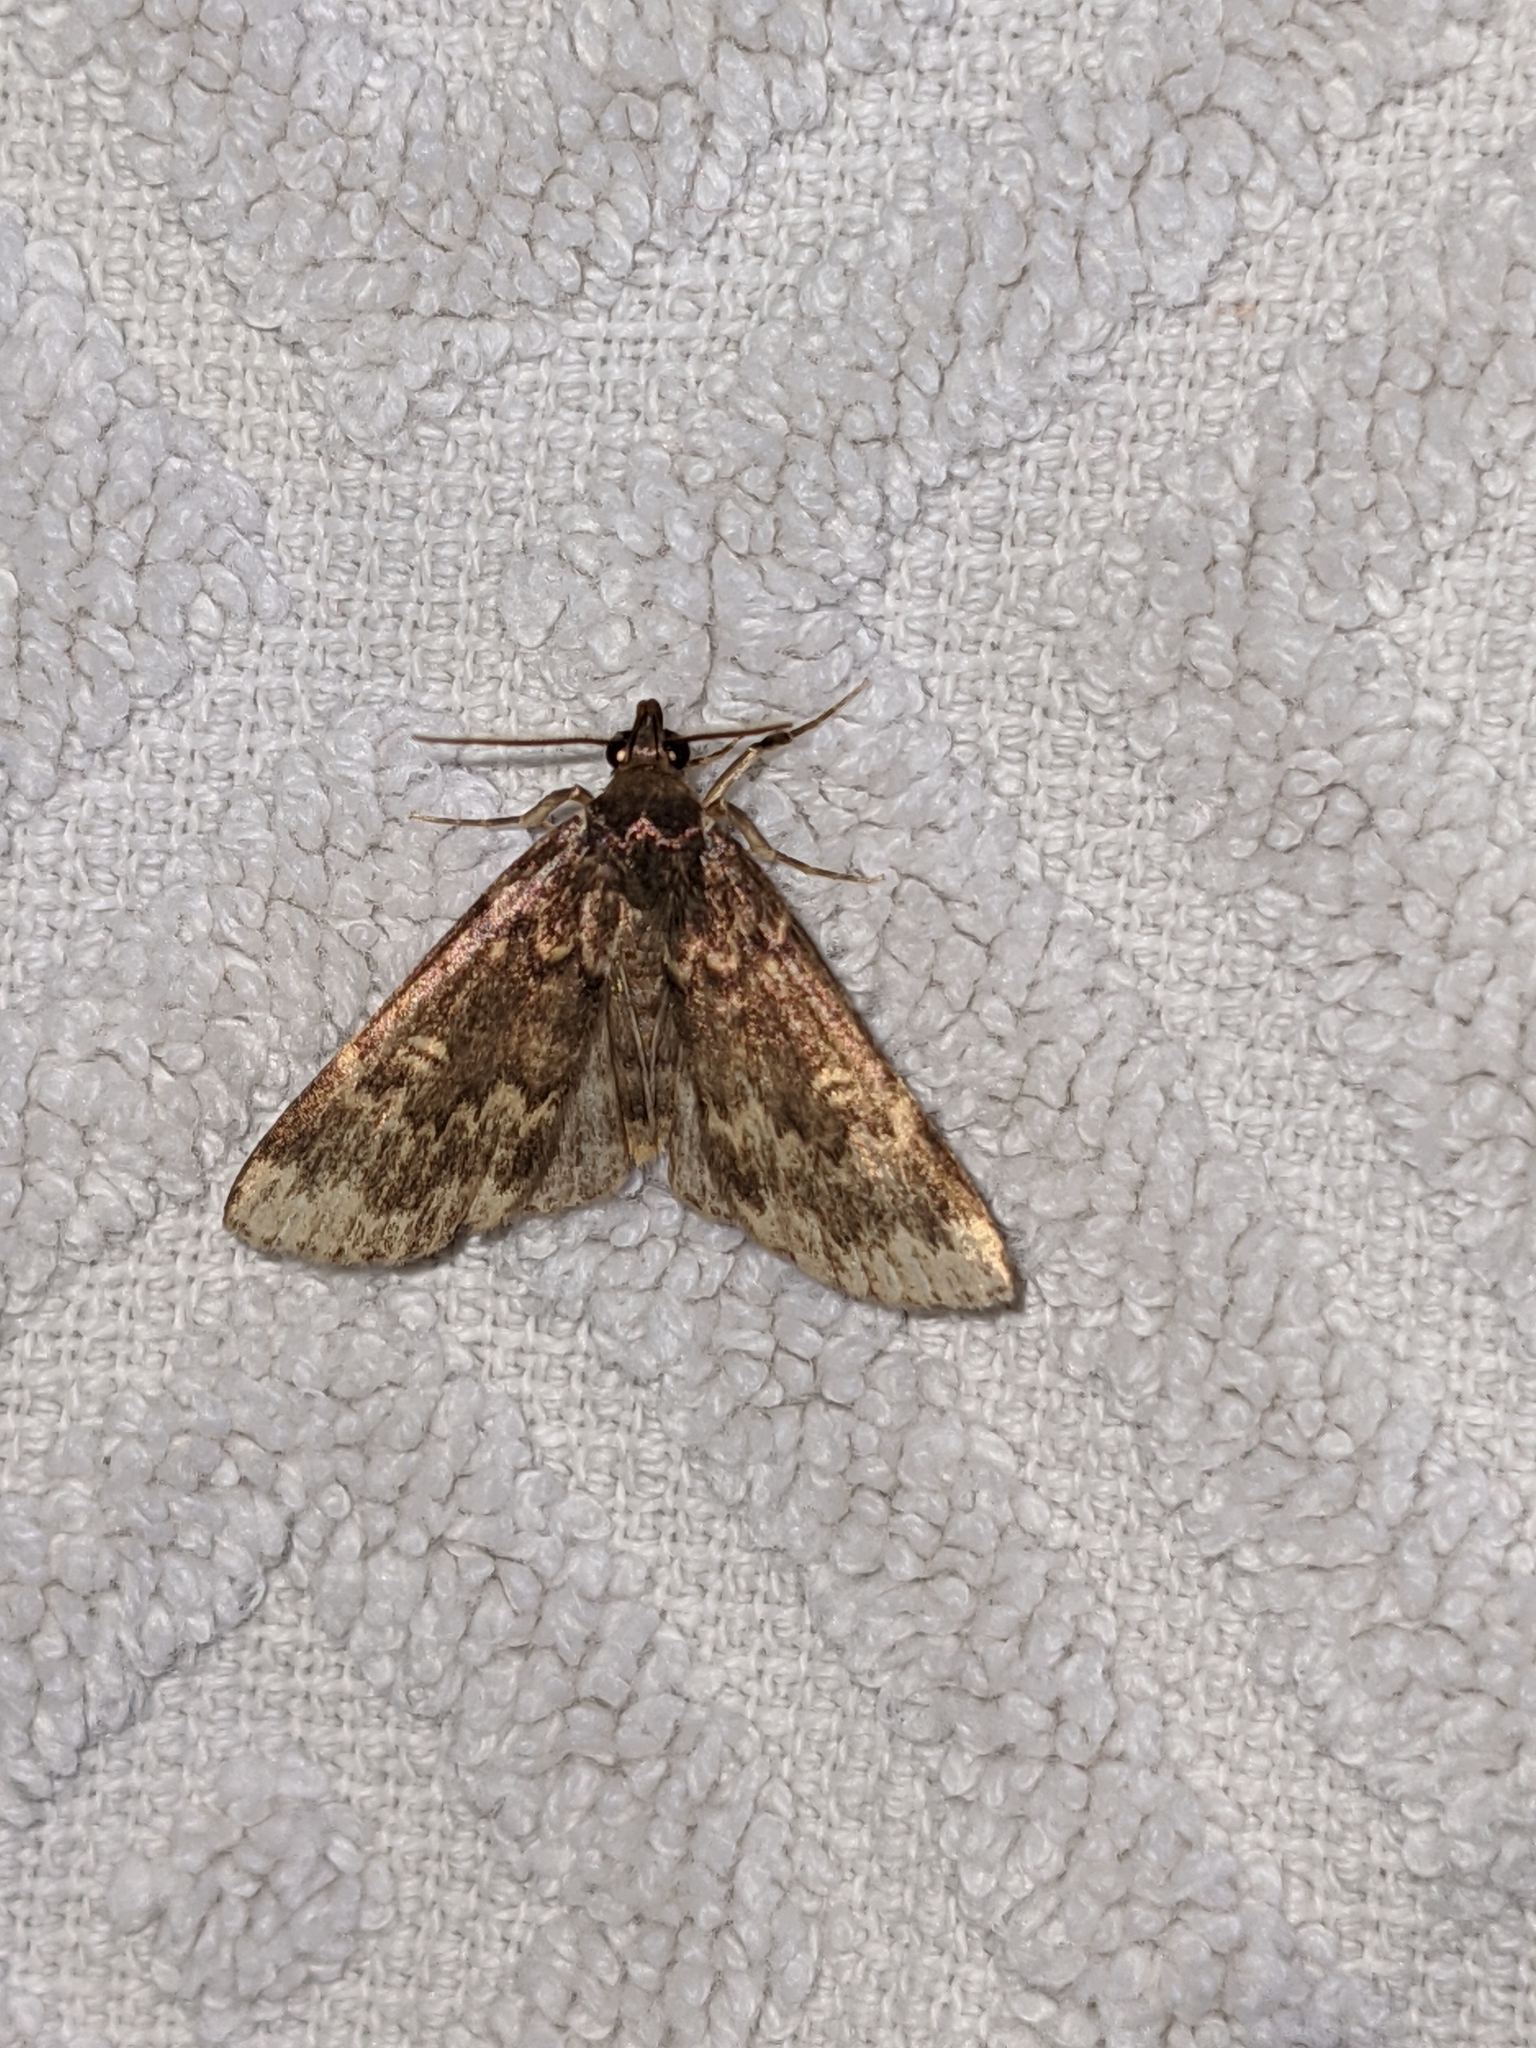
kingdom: Animalia
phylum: Arthropoda
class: Insecta
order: Lepidoptera
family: Erebidae
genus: Idia
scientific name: Idia lubricalis
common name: Twin-striped tabby
